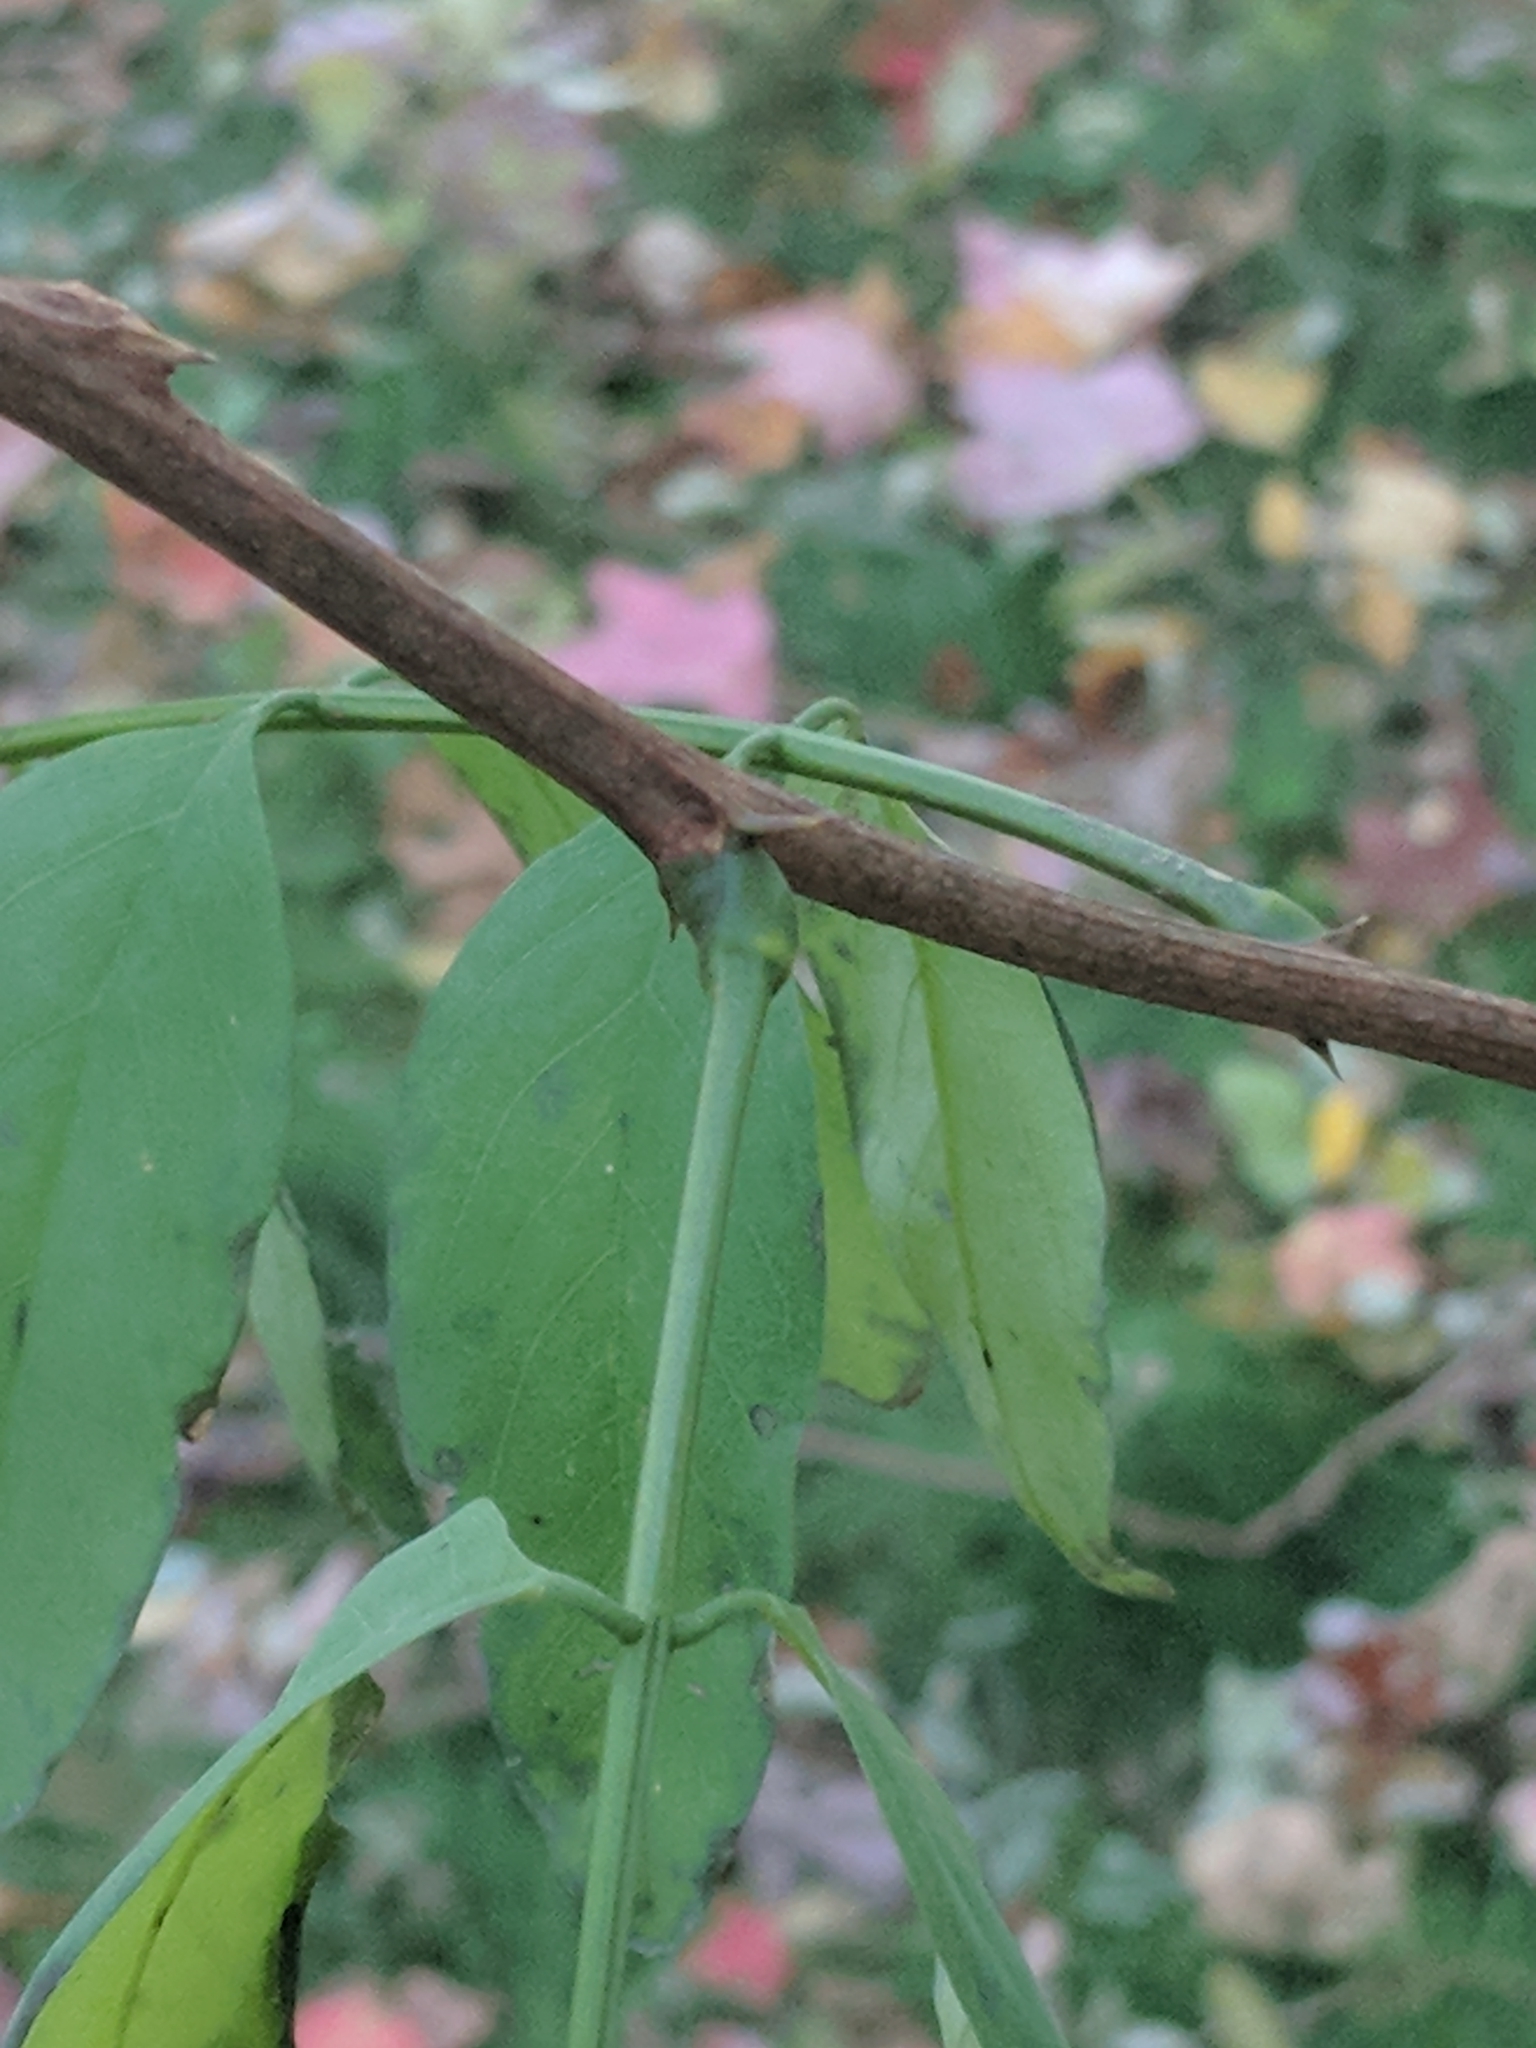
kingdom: Plantae
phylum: Tracheophyta
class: Magnoliopsida
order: Fabales
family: Fabaceae
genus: Robinia
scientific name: Robinia pseudoacacia
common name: Black locust
